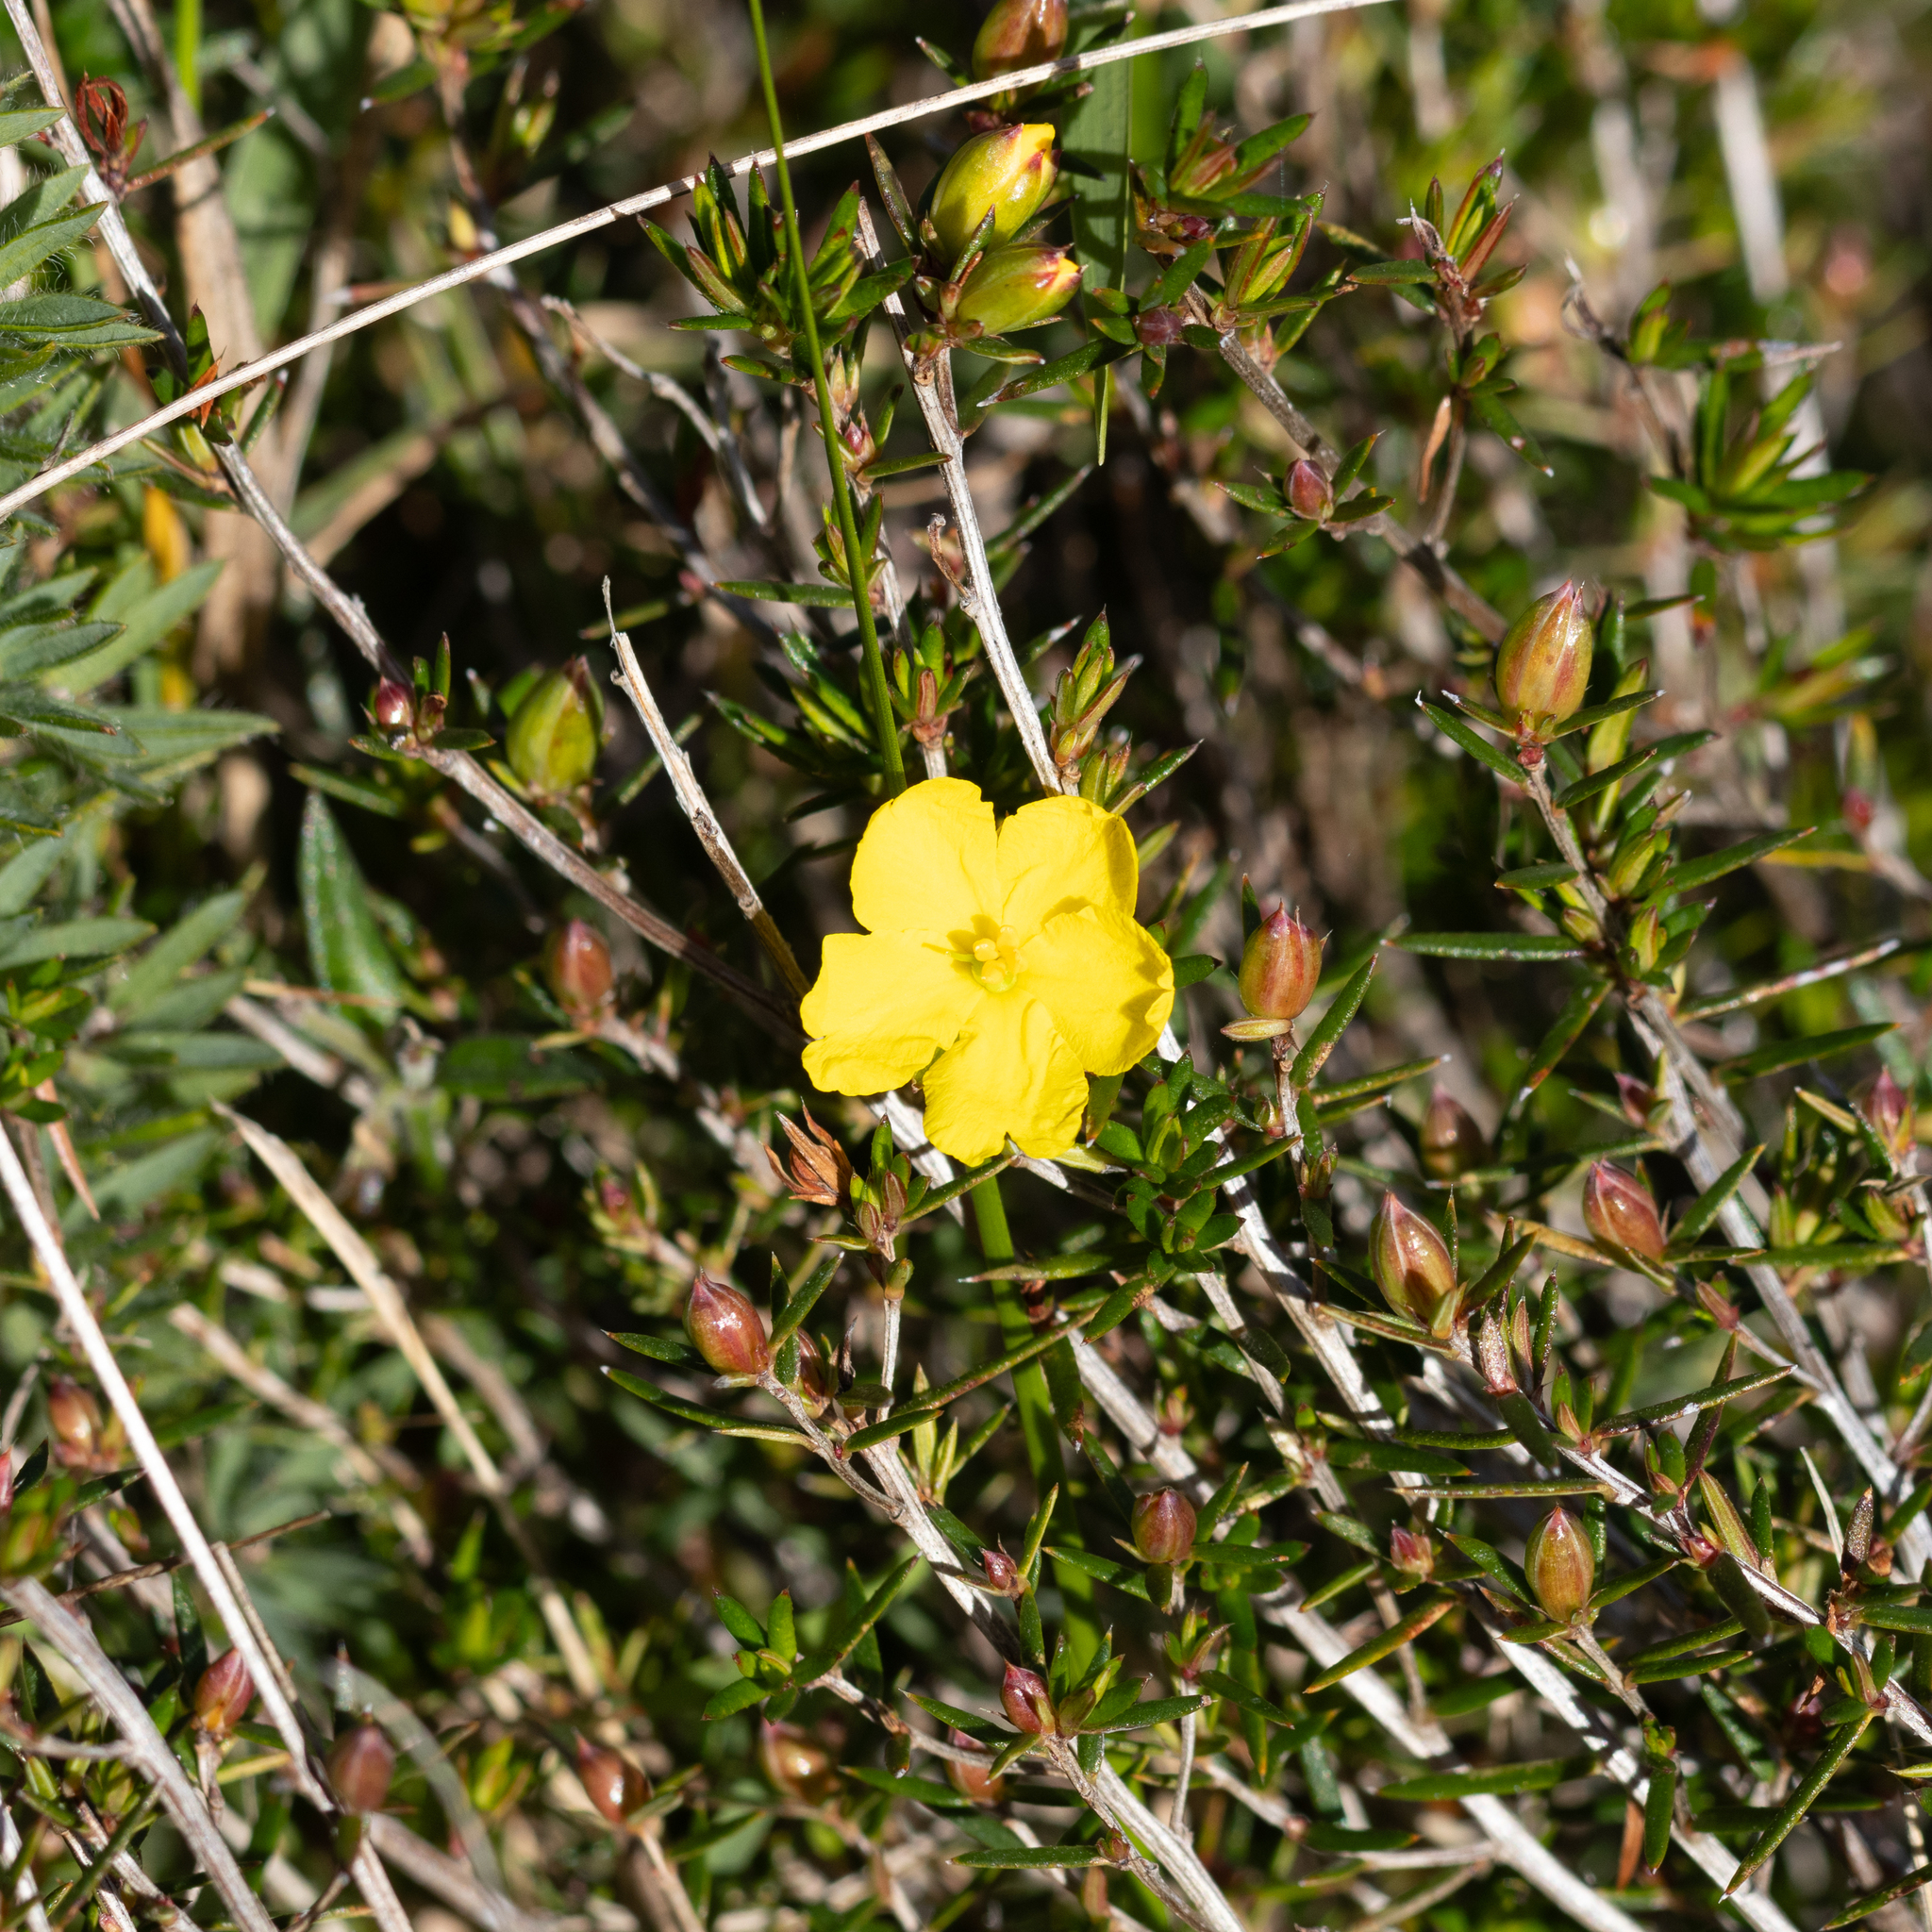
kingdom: Plantae
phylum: Tracheophyta
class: Magnoliopsida
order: Dilleniales
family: Dilleniaceae
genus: Hibbertia
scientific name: Hibbertia exutiacies
